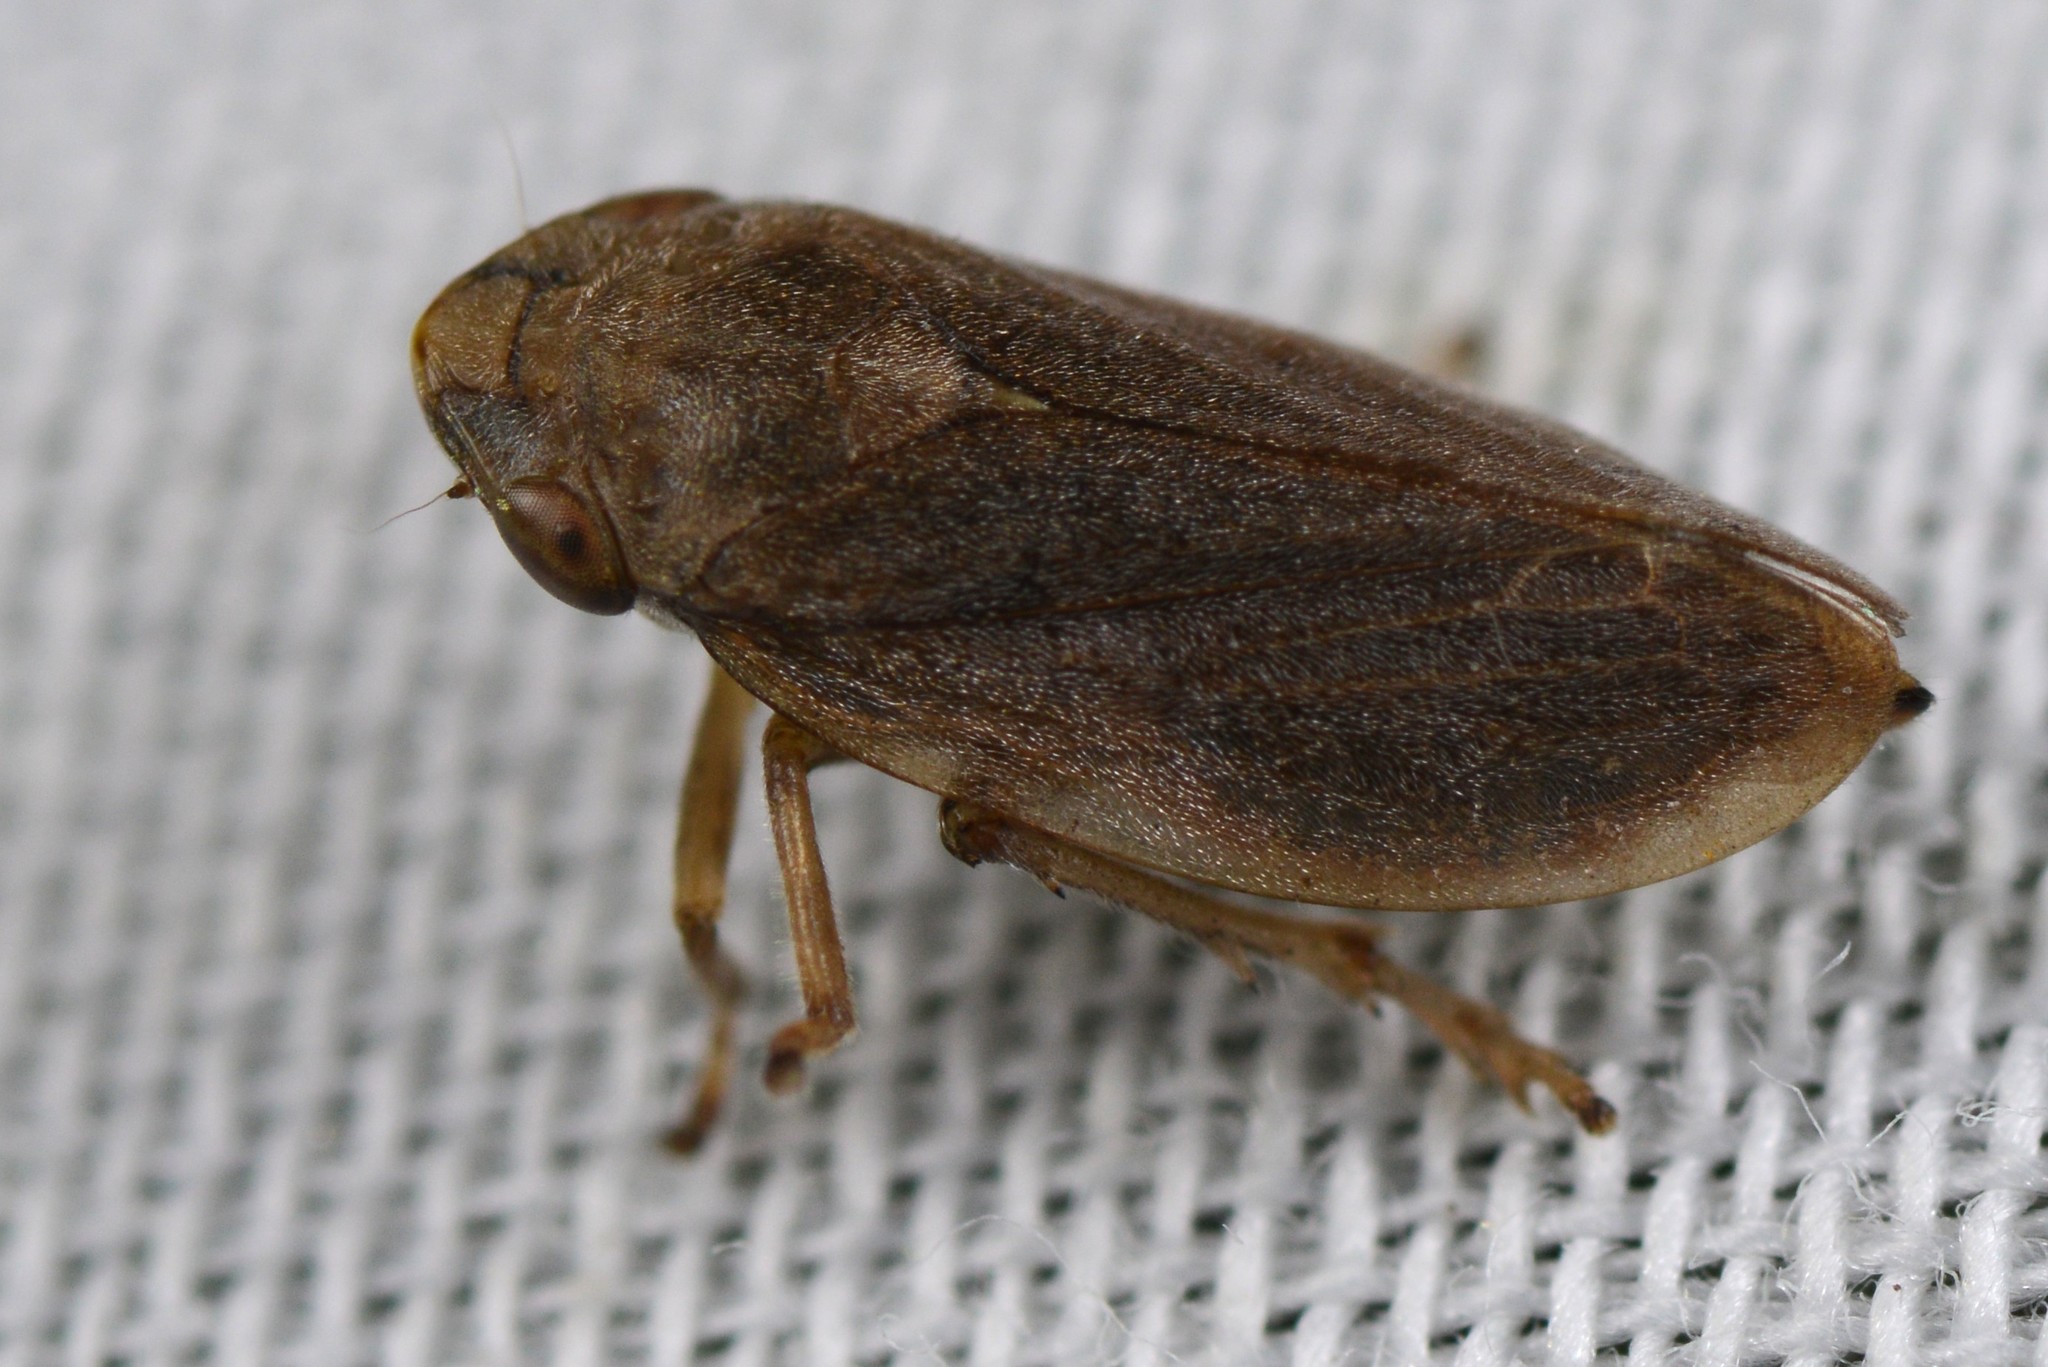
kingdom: Animalia
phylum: Arthropoda
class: Insecta
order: Hemiptera
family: Aphrophoridae
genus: Philaenus
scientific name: Philaenus spumarius
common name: Meadow spittlebug
